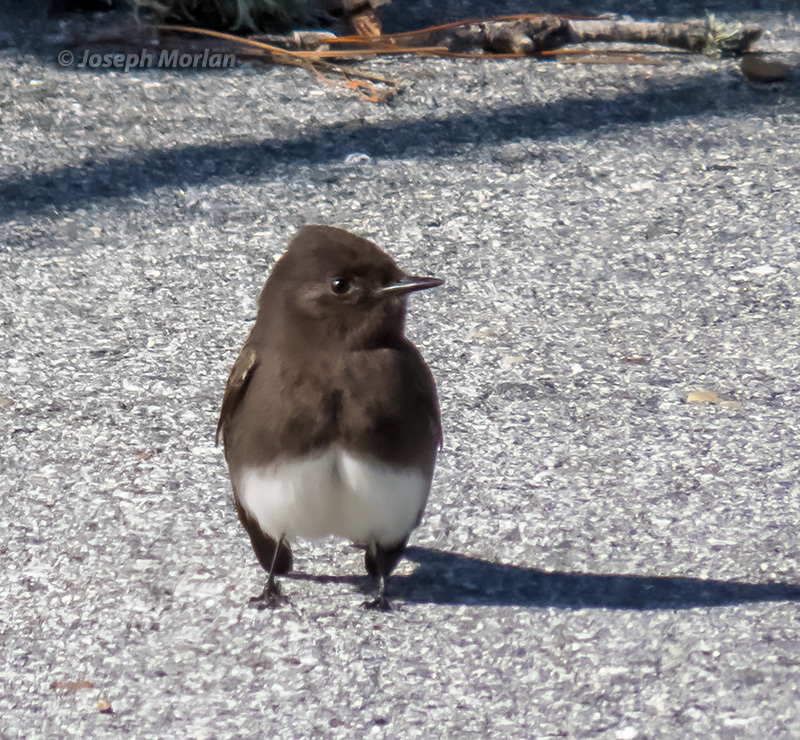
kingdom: Animalia
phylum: Chordata
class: Aves
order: Passeriformes
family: Tyrannidae
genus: Sayornis
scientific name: Sayornis nigricans
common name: Black phoebe
